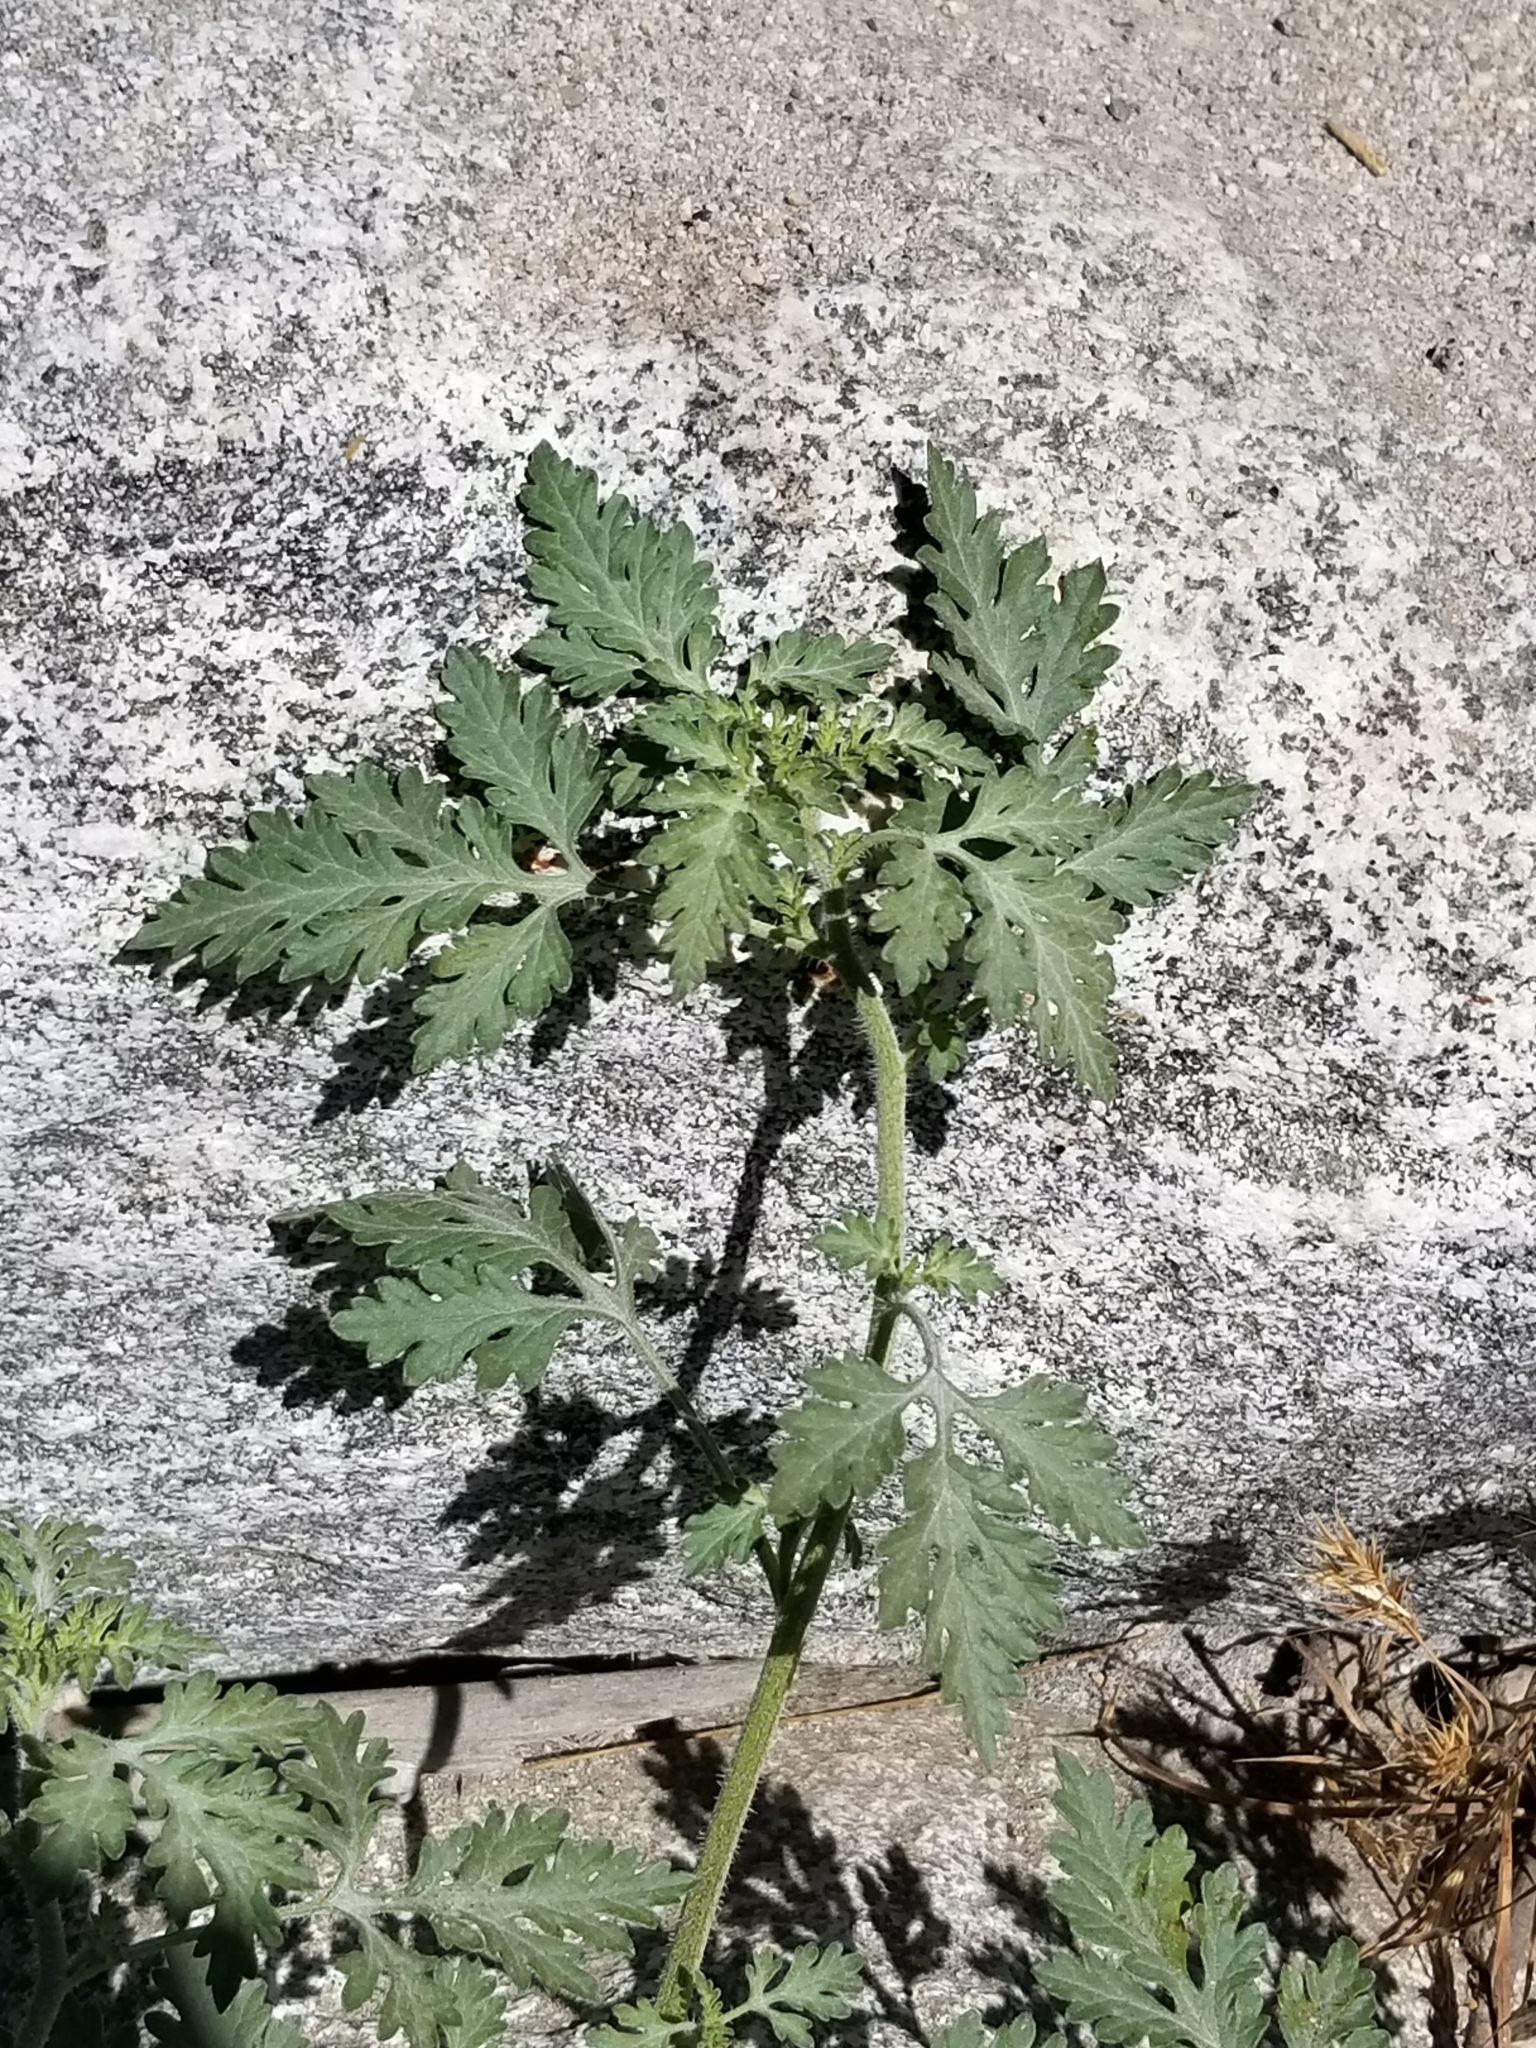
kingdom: Plantae
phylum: Tracheophyta
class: Magnoliopsida
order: Asterales
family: Asteraceae
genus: Ambrosia
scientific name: Ambrosia acanthicarpa
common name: Hooker's bur ragweed
